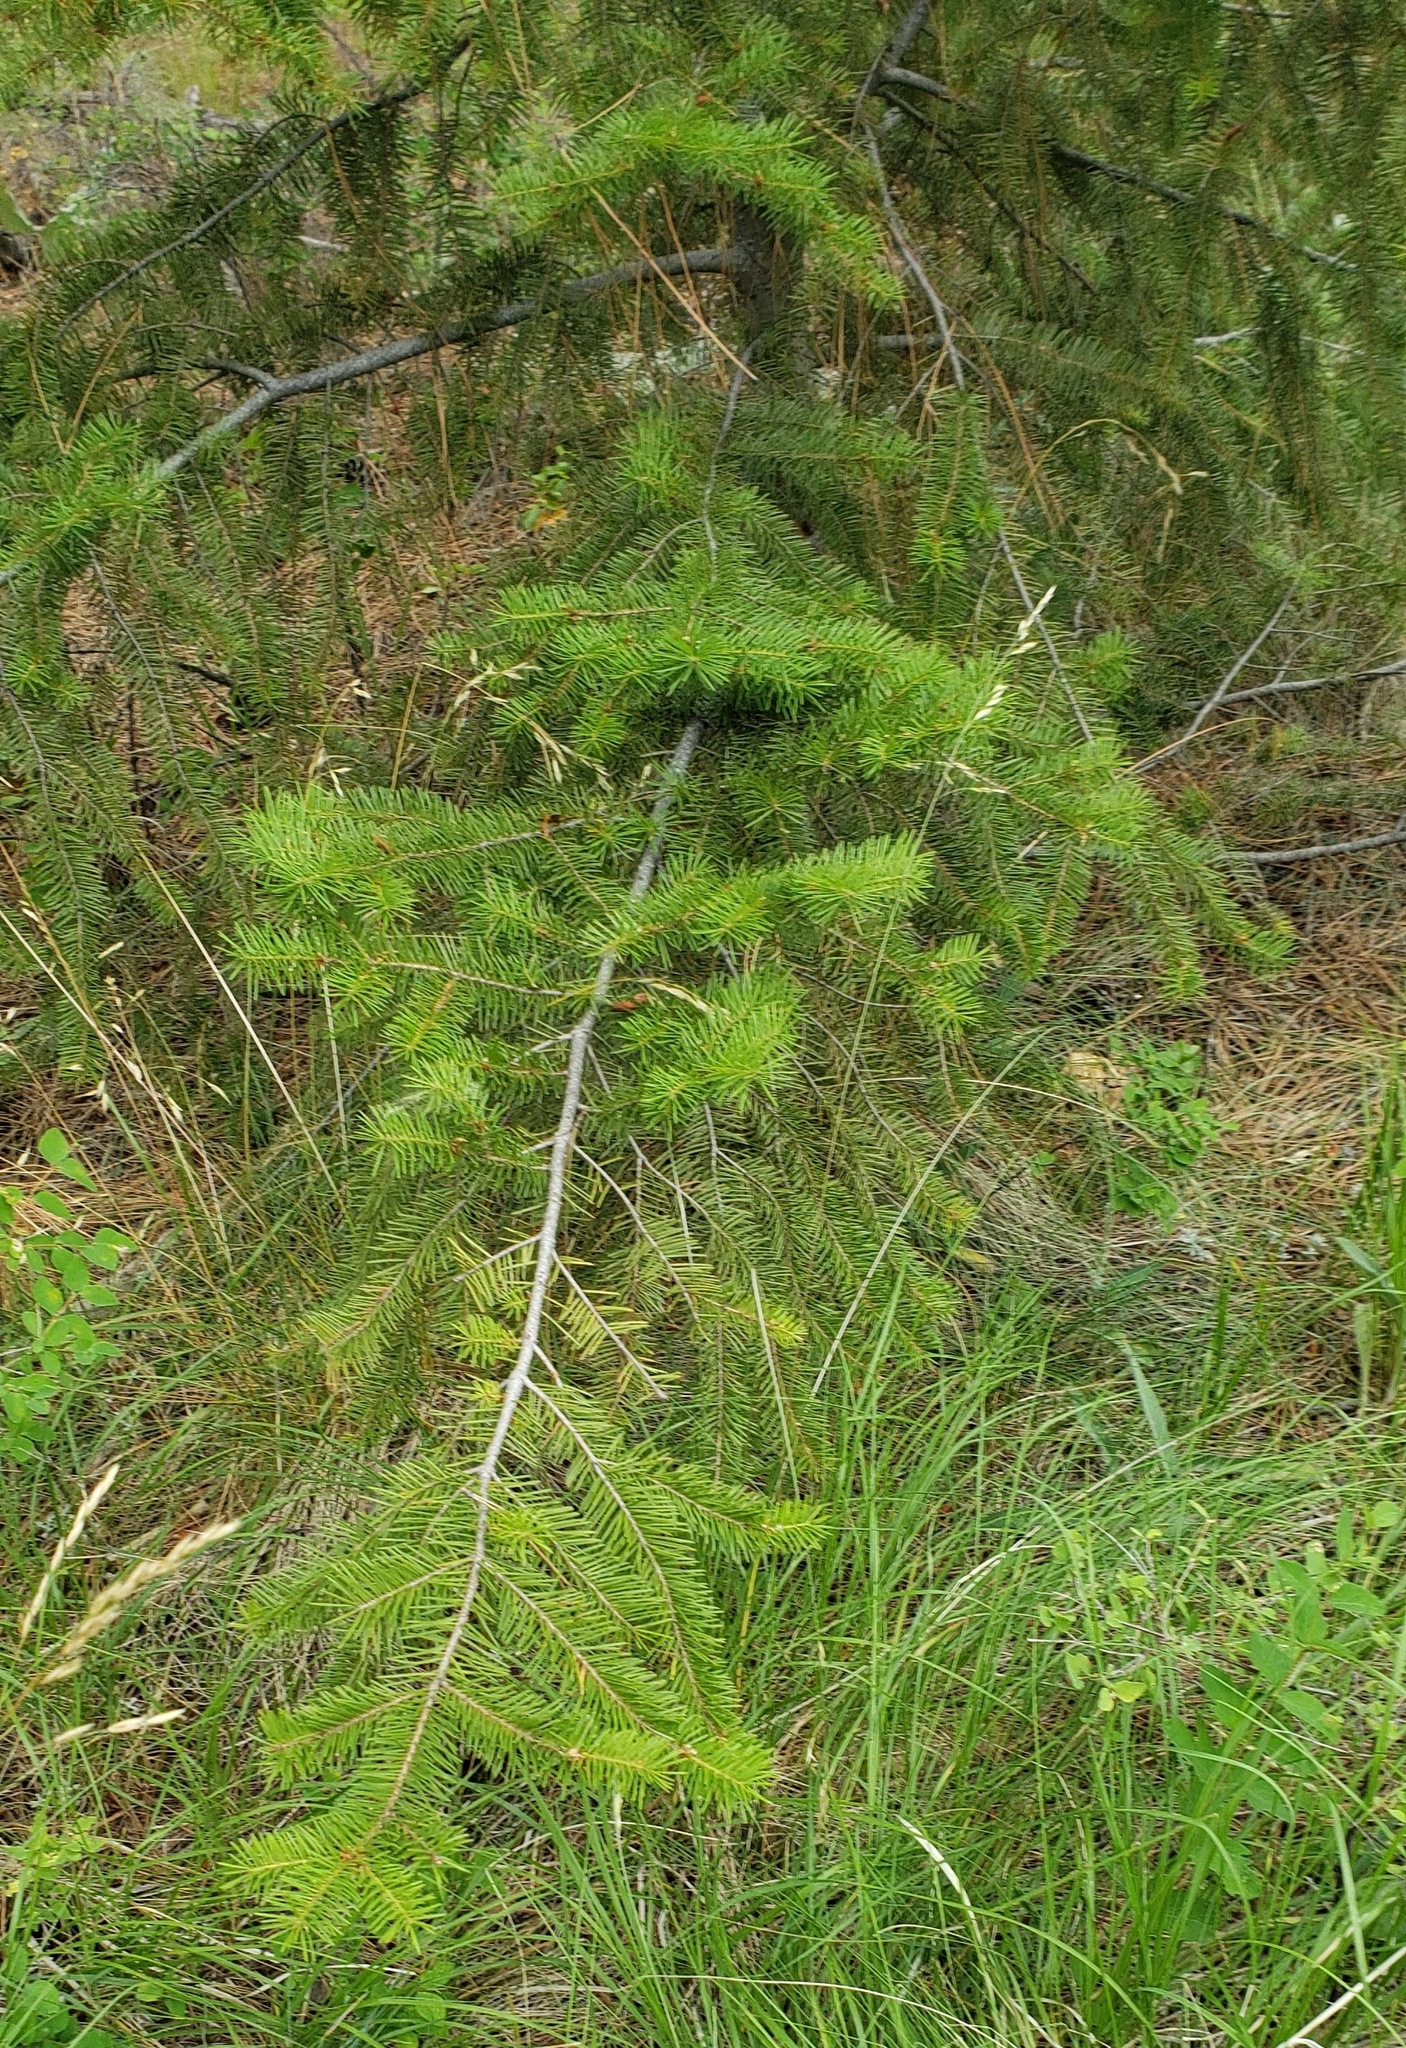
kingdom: Plantae
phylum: Tracheophyta
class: Pinopsida
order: Pinales
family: Pinaceae
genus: Pseudotsuga
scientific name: Pseudotsuga menziesii
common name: Douglas fir
